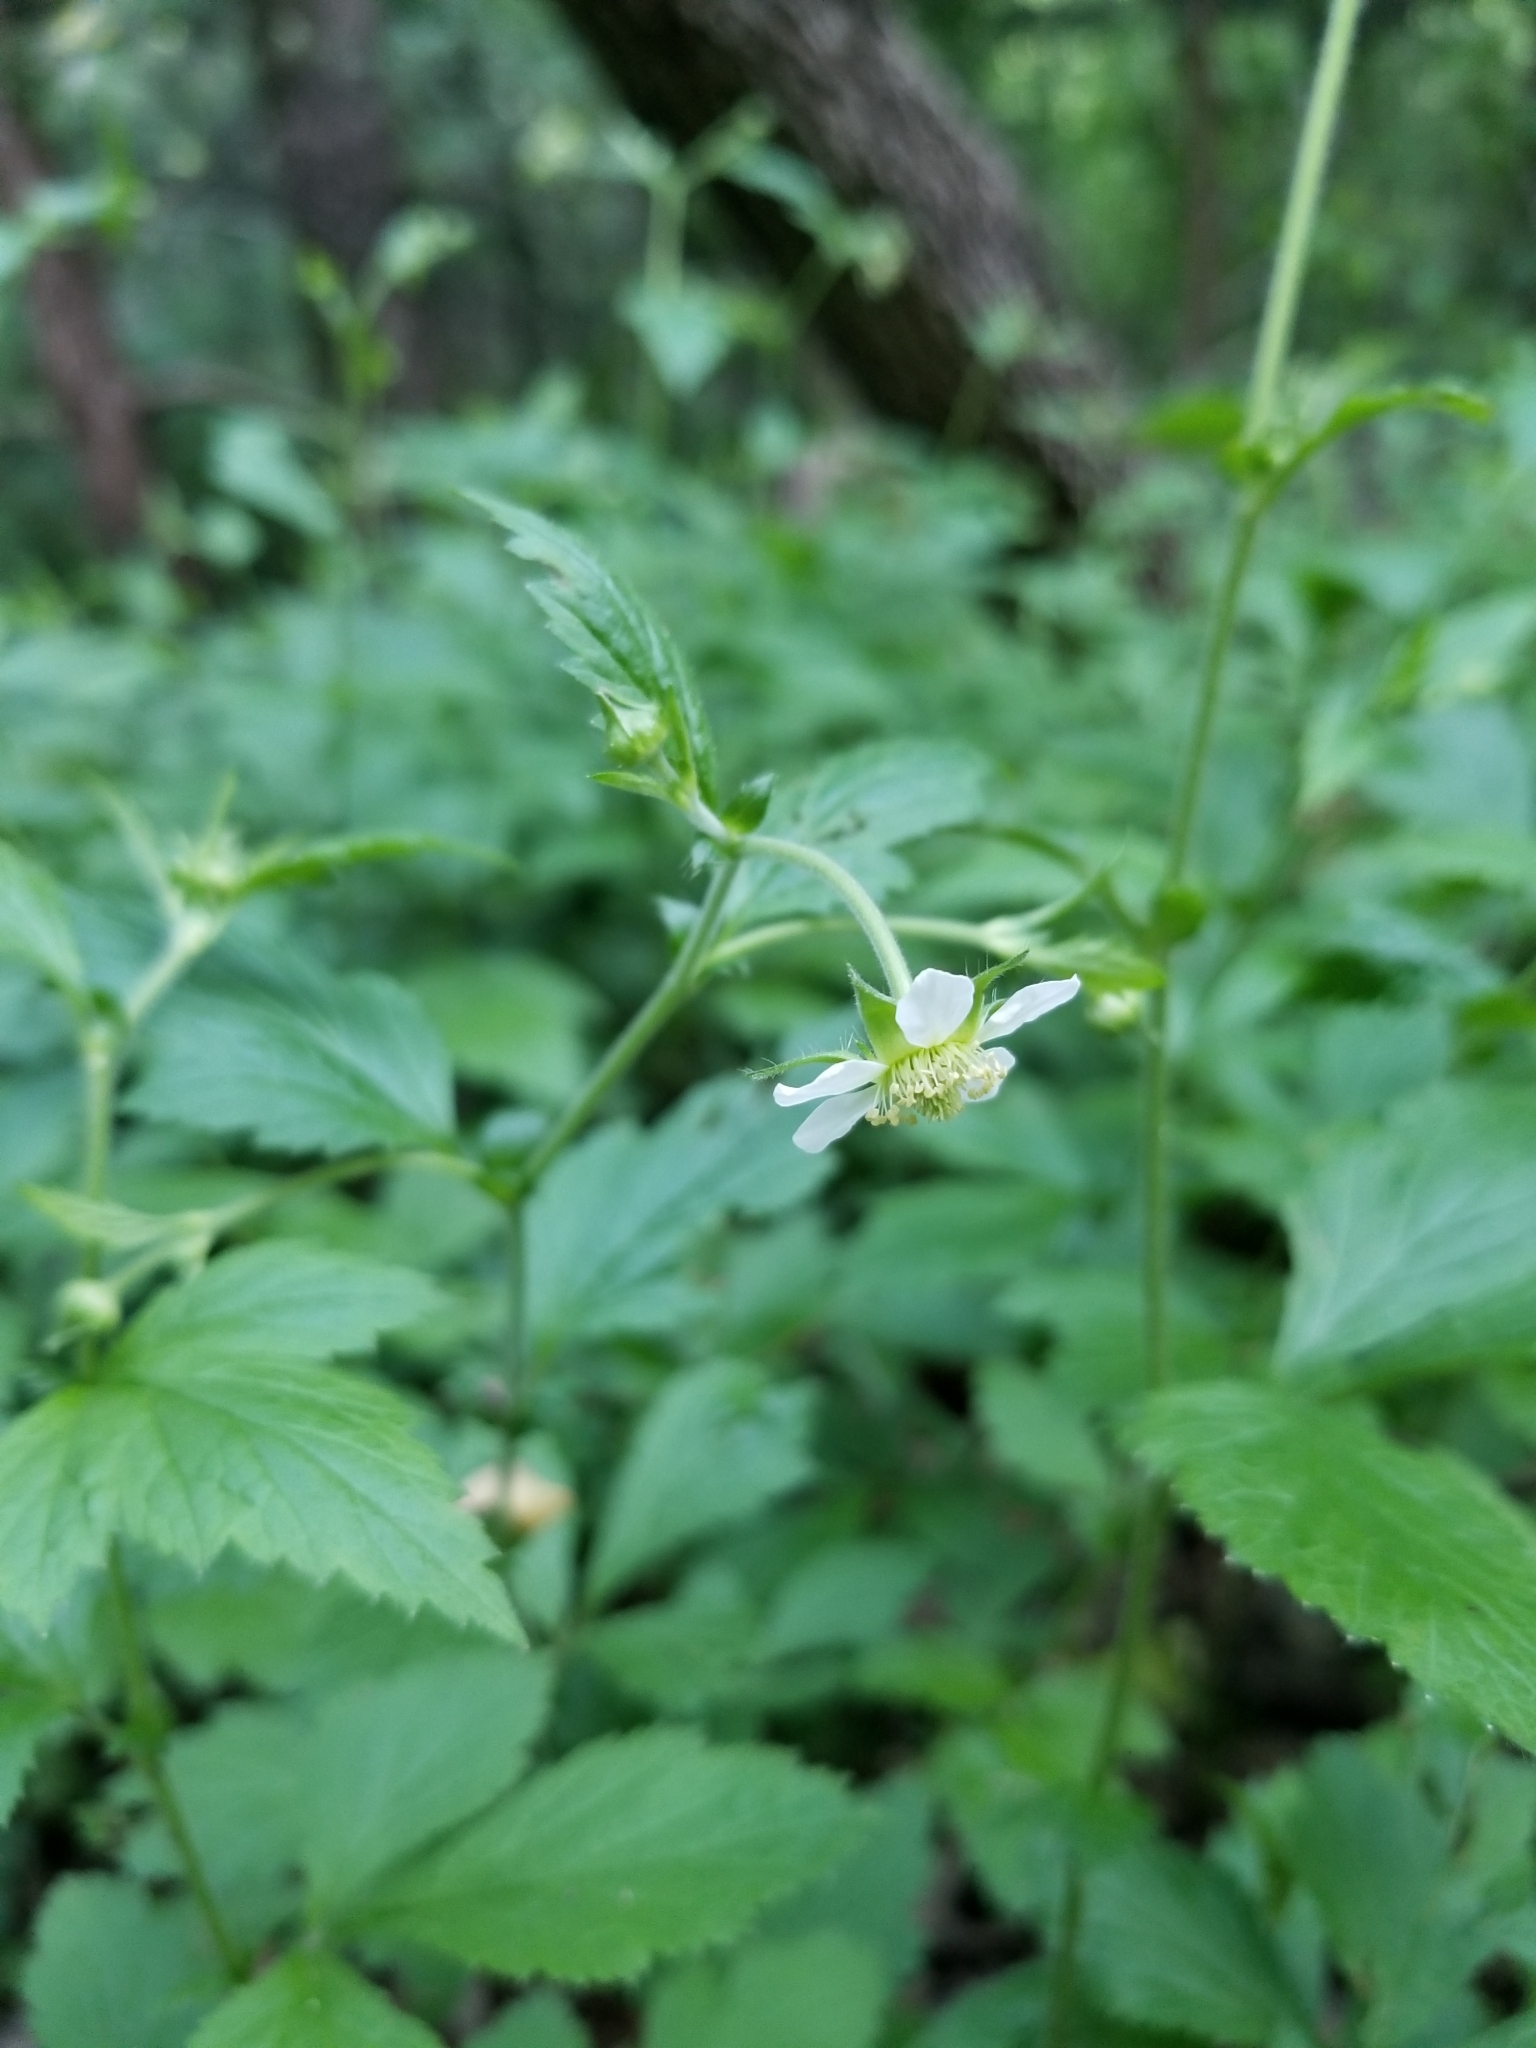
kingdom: Plantae
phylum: Tracheophyta
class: Magnoliopsida
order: Rosales
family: Rosaceae
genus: Geum
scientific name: Geum canadense
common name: White avens
